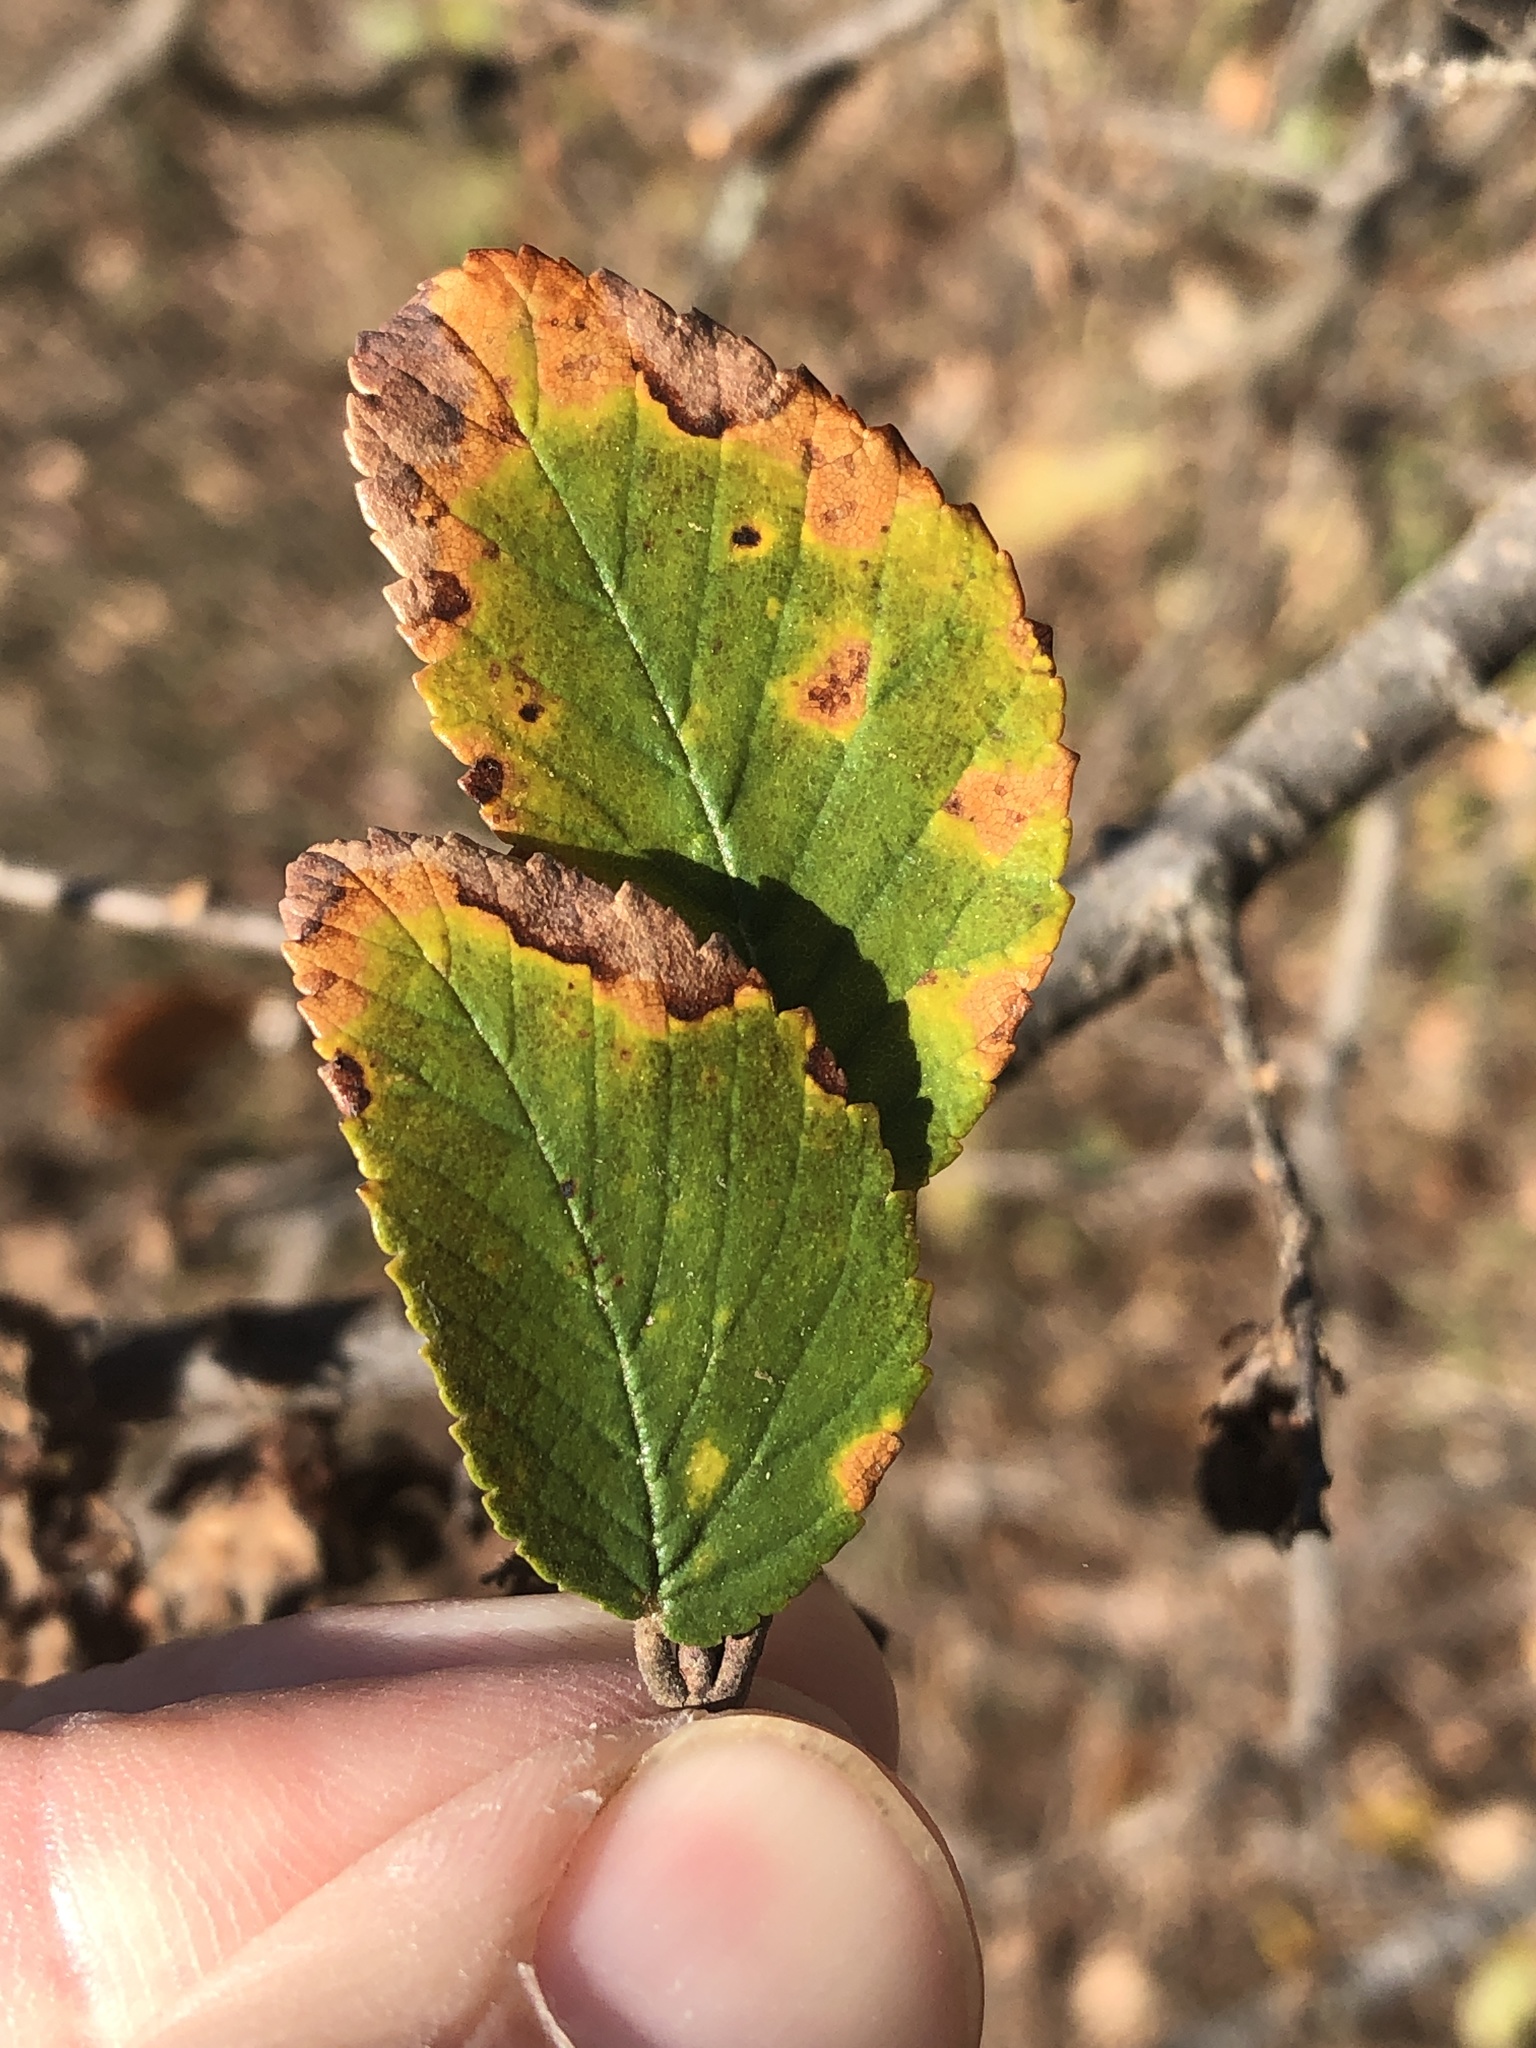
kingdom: Plantae
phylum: Tracheophyta
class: Magnoliopsida
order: Rosales
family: Ulmaceae
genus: Ulmus
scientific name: Ulmus crassifolia
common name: Basket elm
